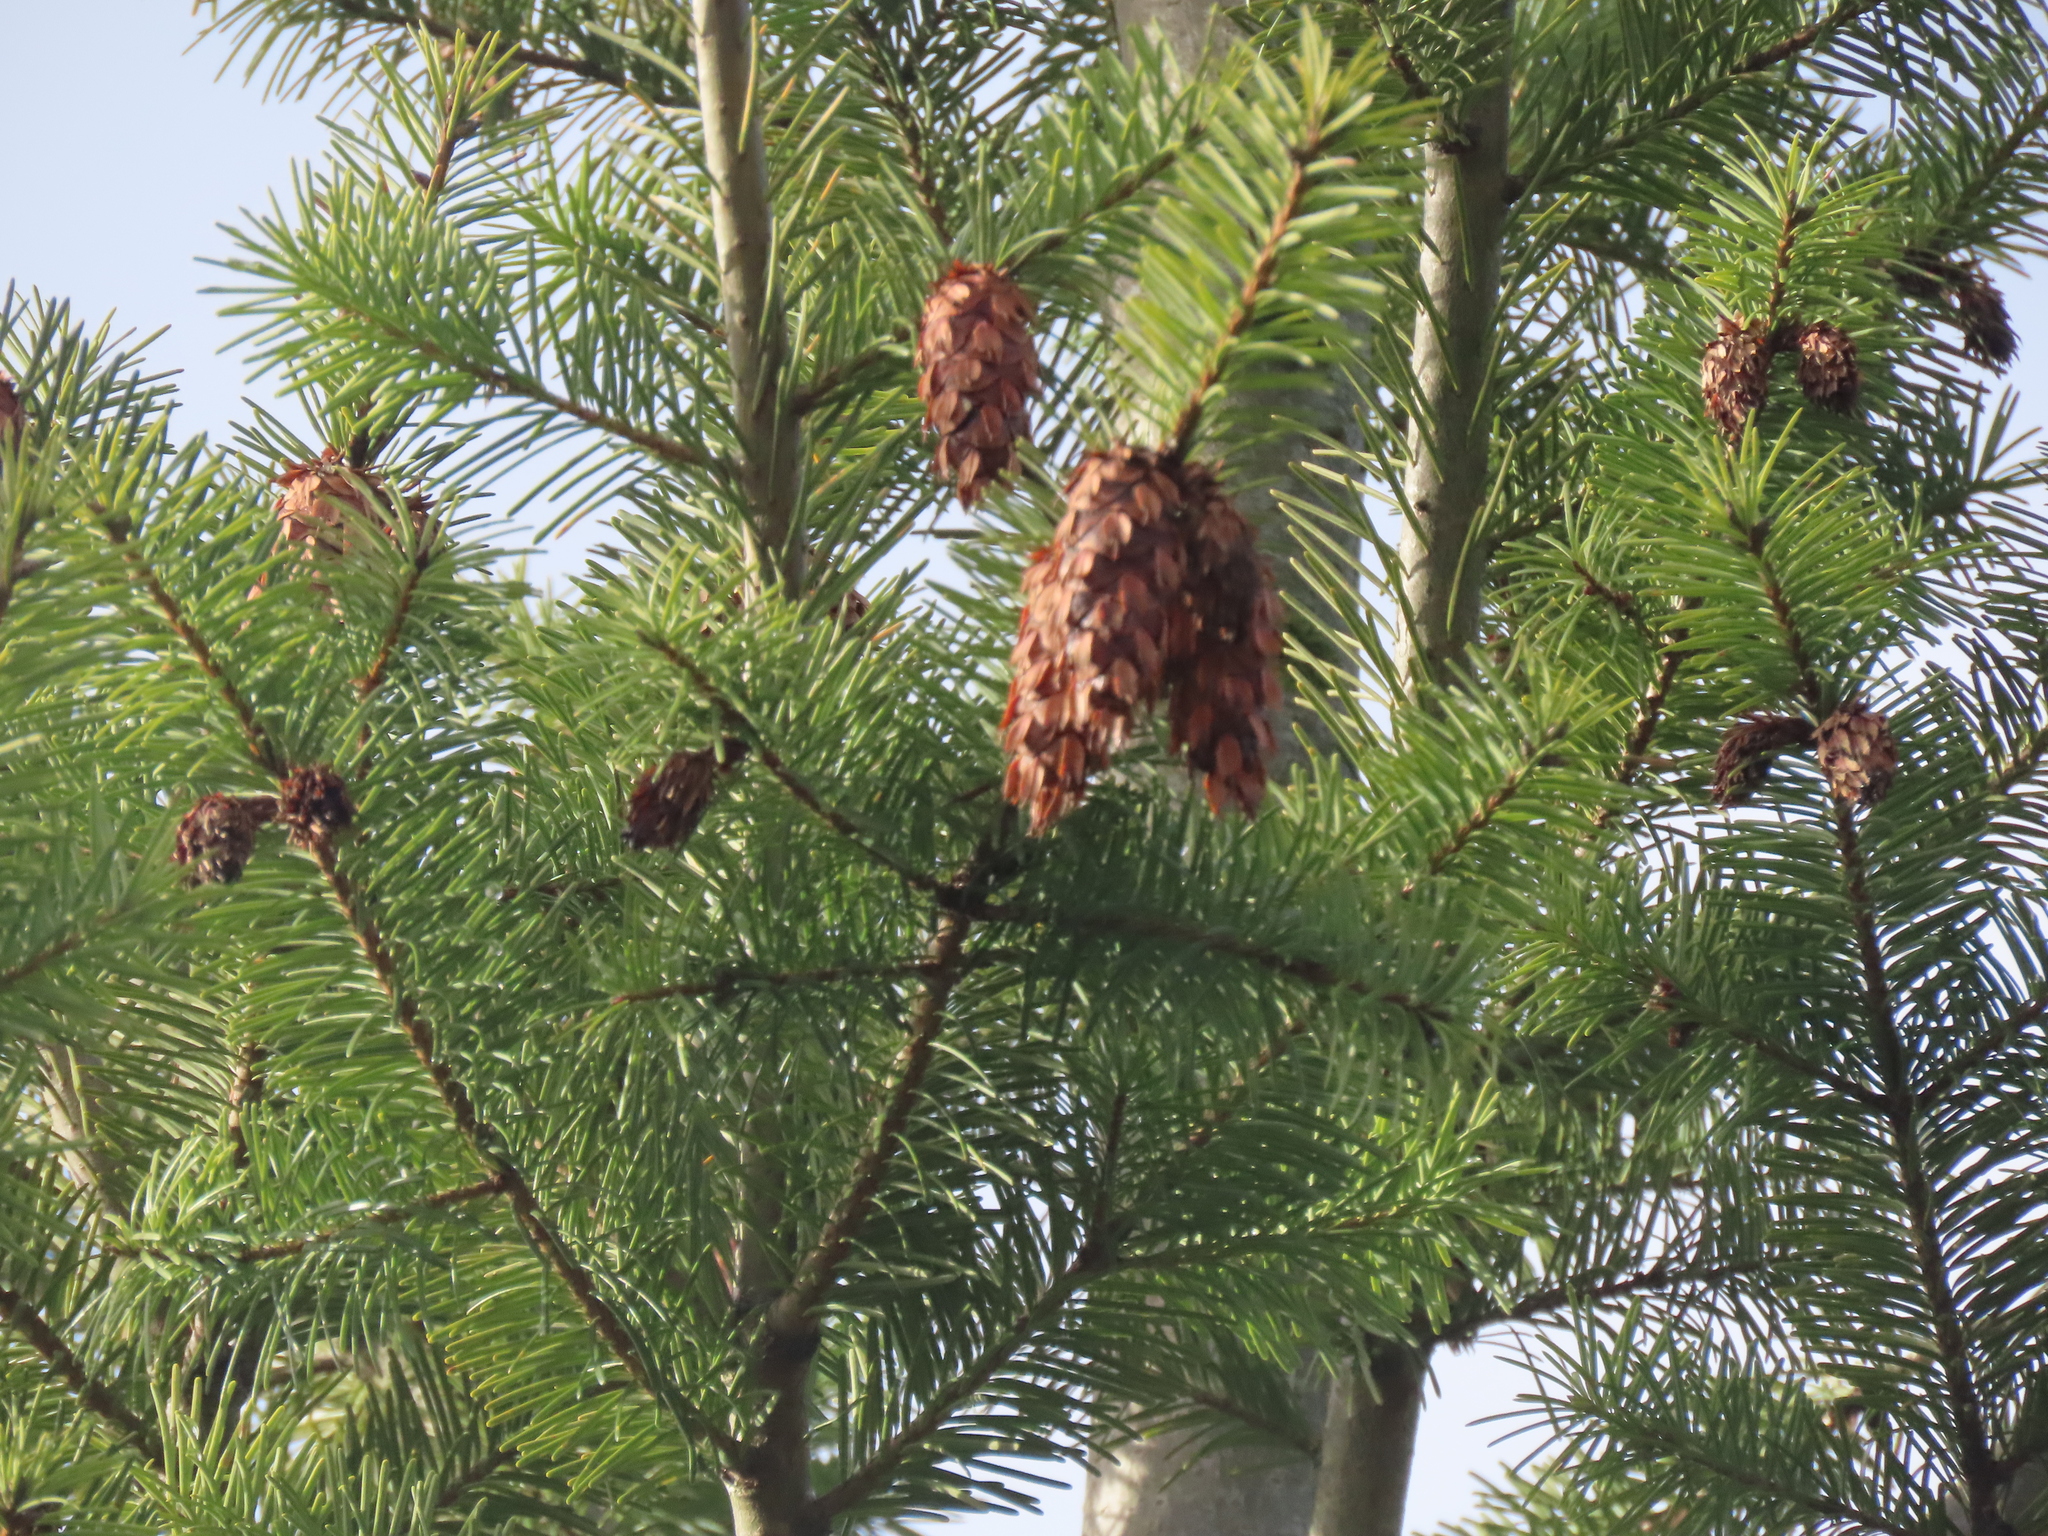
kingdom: Plantae
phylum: Tracheophyta
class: Pinopsida
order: Pinales
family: Pinaceae
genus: Pseudotsuga
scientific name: Pseudotsuga menziesii
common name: Douglas fir
